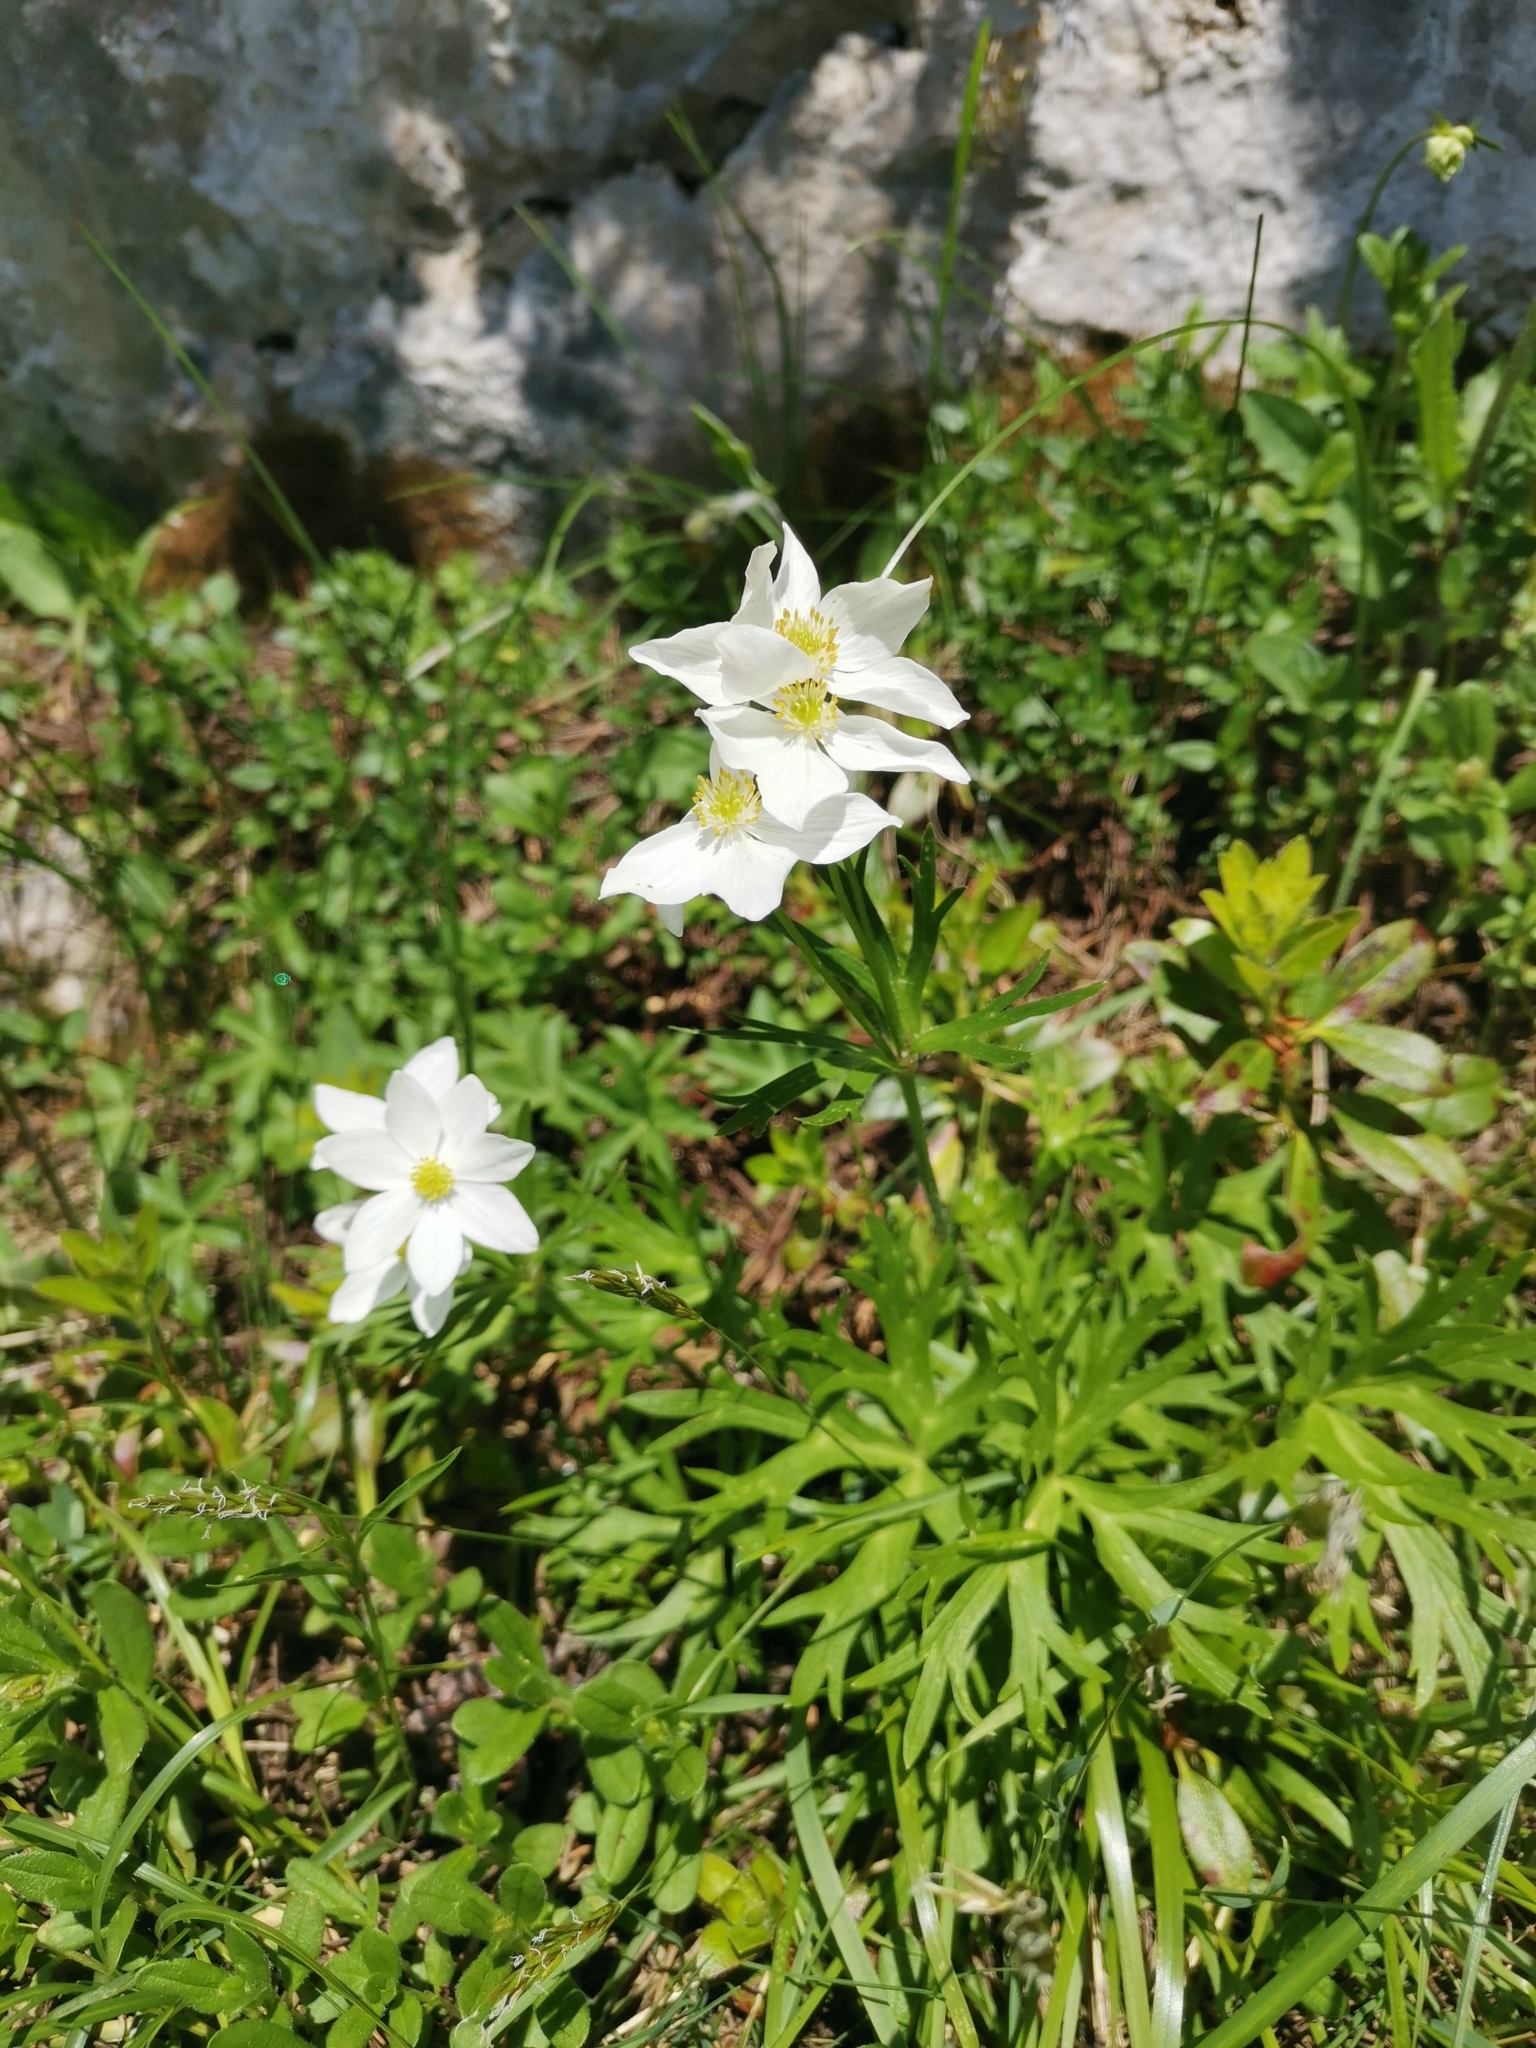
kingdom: Plantae
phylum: Tracheophyta
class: Magnoliopsida
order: Ranunculales
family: Ranunculaceae
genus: Anemonastrum
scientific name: Anemonastrum narcissiflorum
